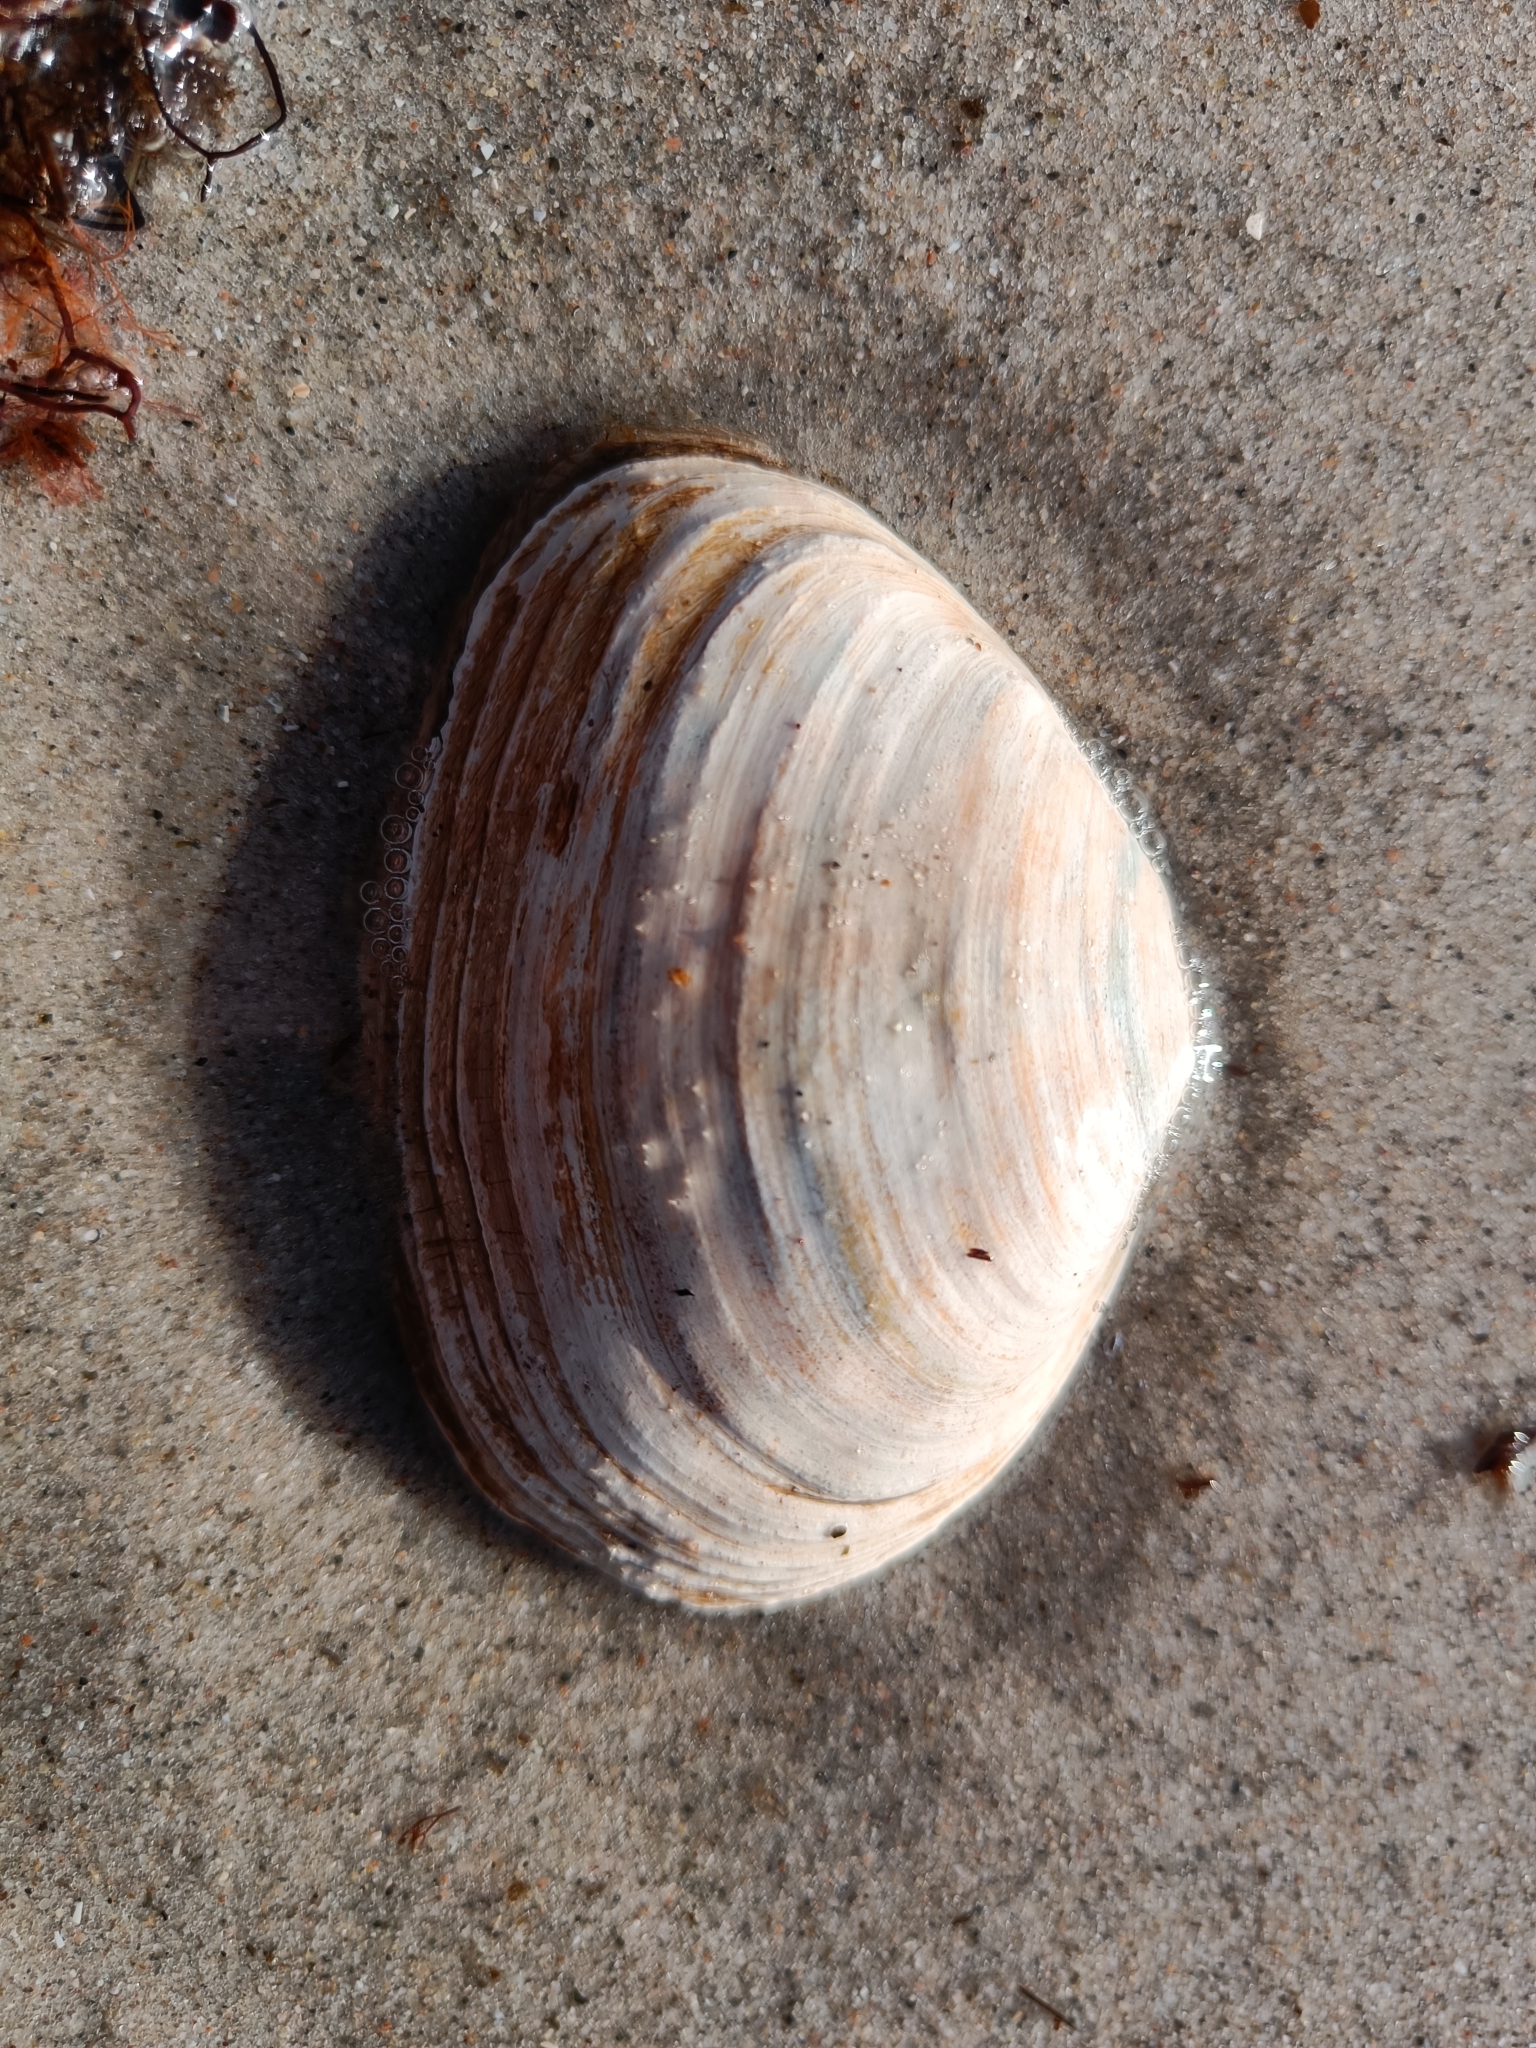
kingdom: Animalia
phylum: Mollusca
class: Bivalvia
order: Myida
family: Myidae
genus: Mya
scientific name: Mya arenaria
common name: Soft-shelled clam
